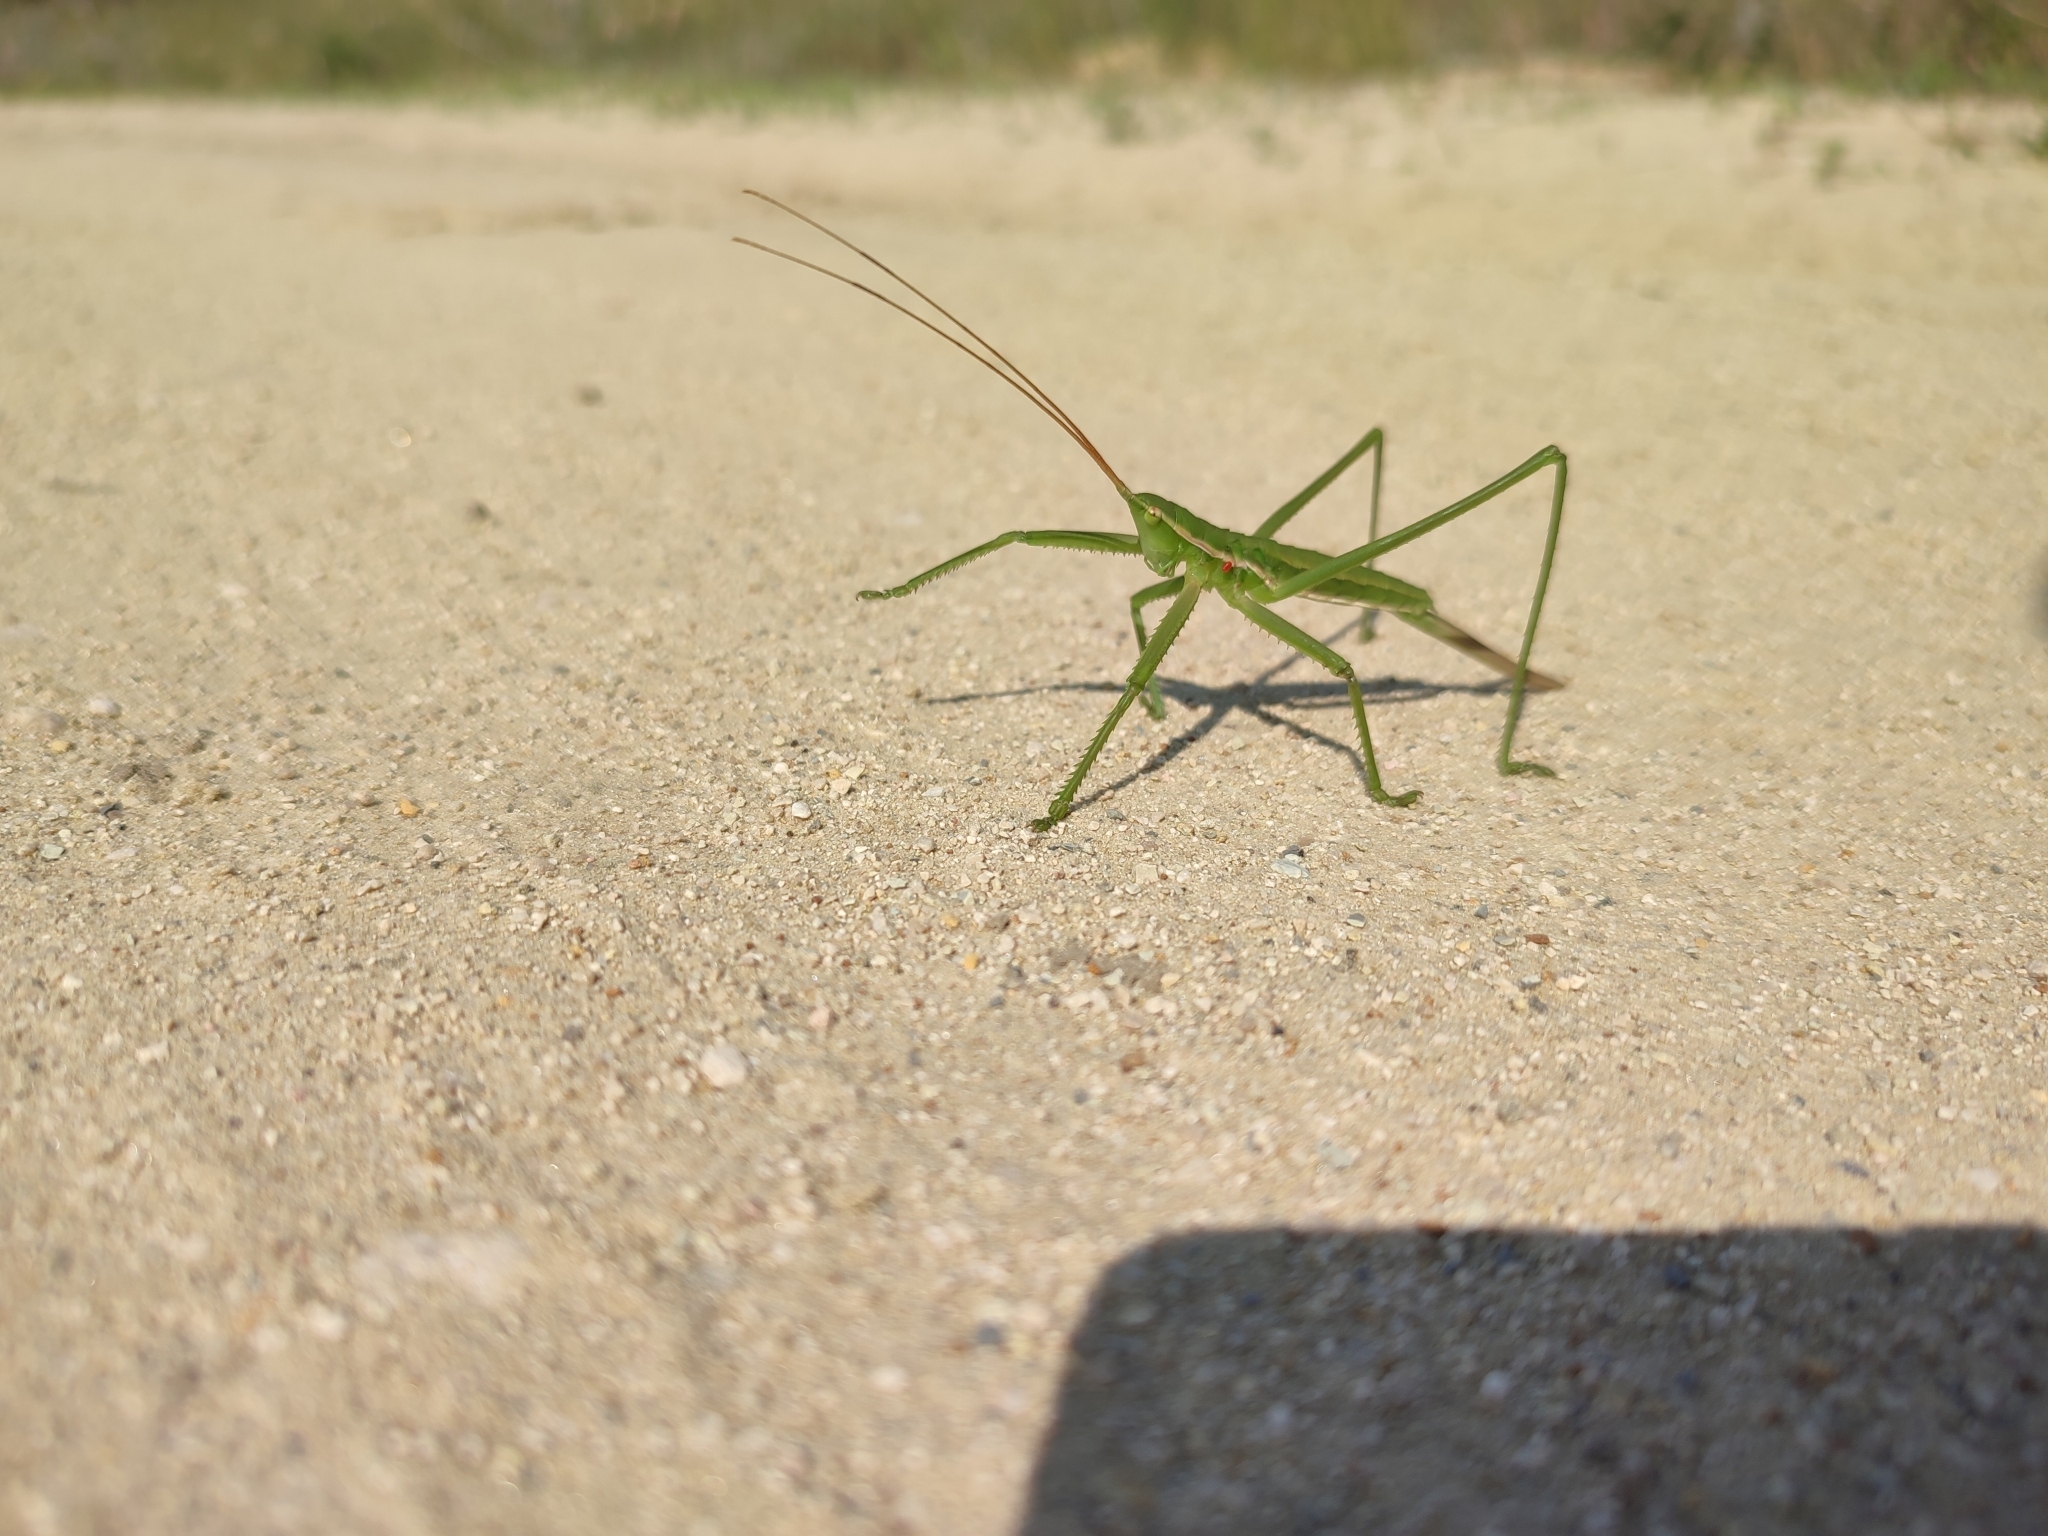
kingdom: Animalia
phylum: Arthropoda
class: Insecta
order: Orthoptera
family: Tettigoniidae
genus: Saga
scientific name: Saga pedo
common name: Common predatory bush-cricket
